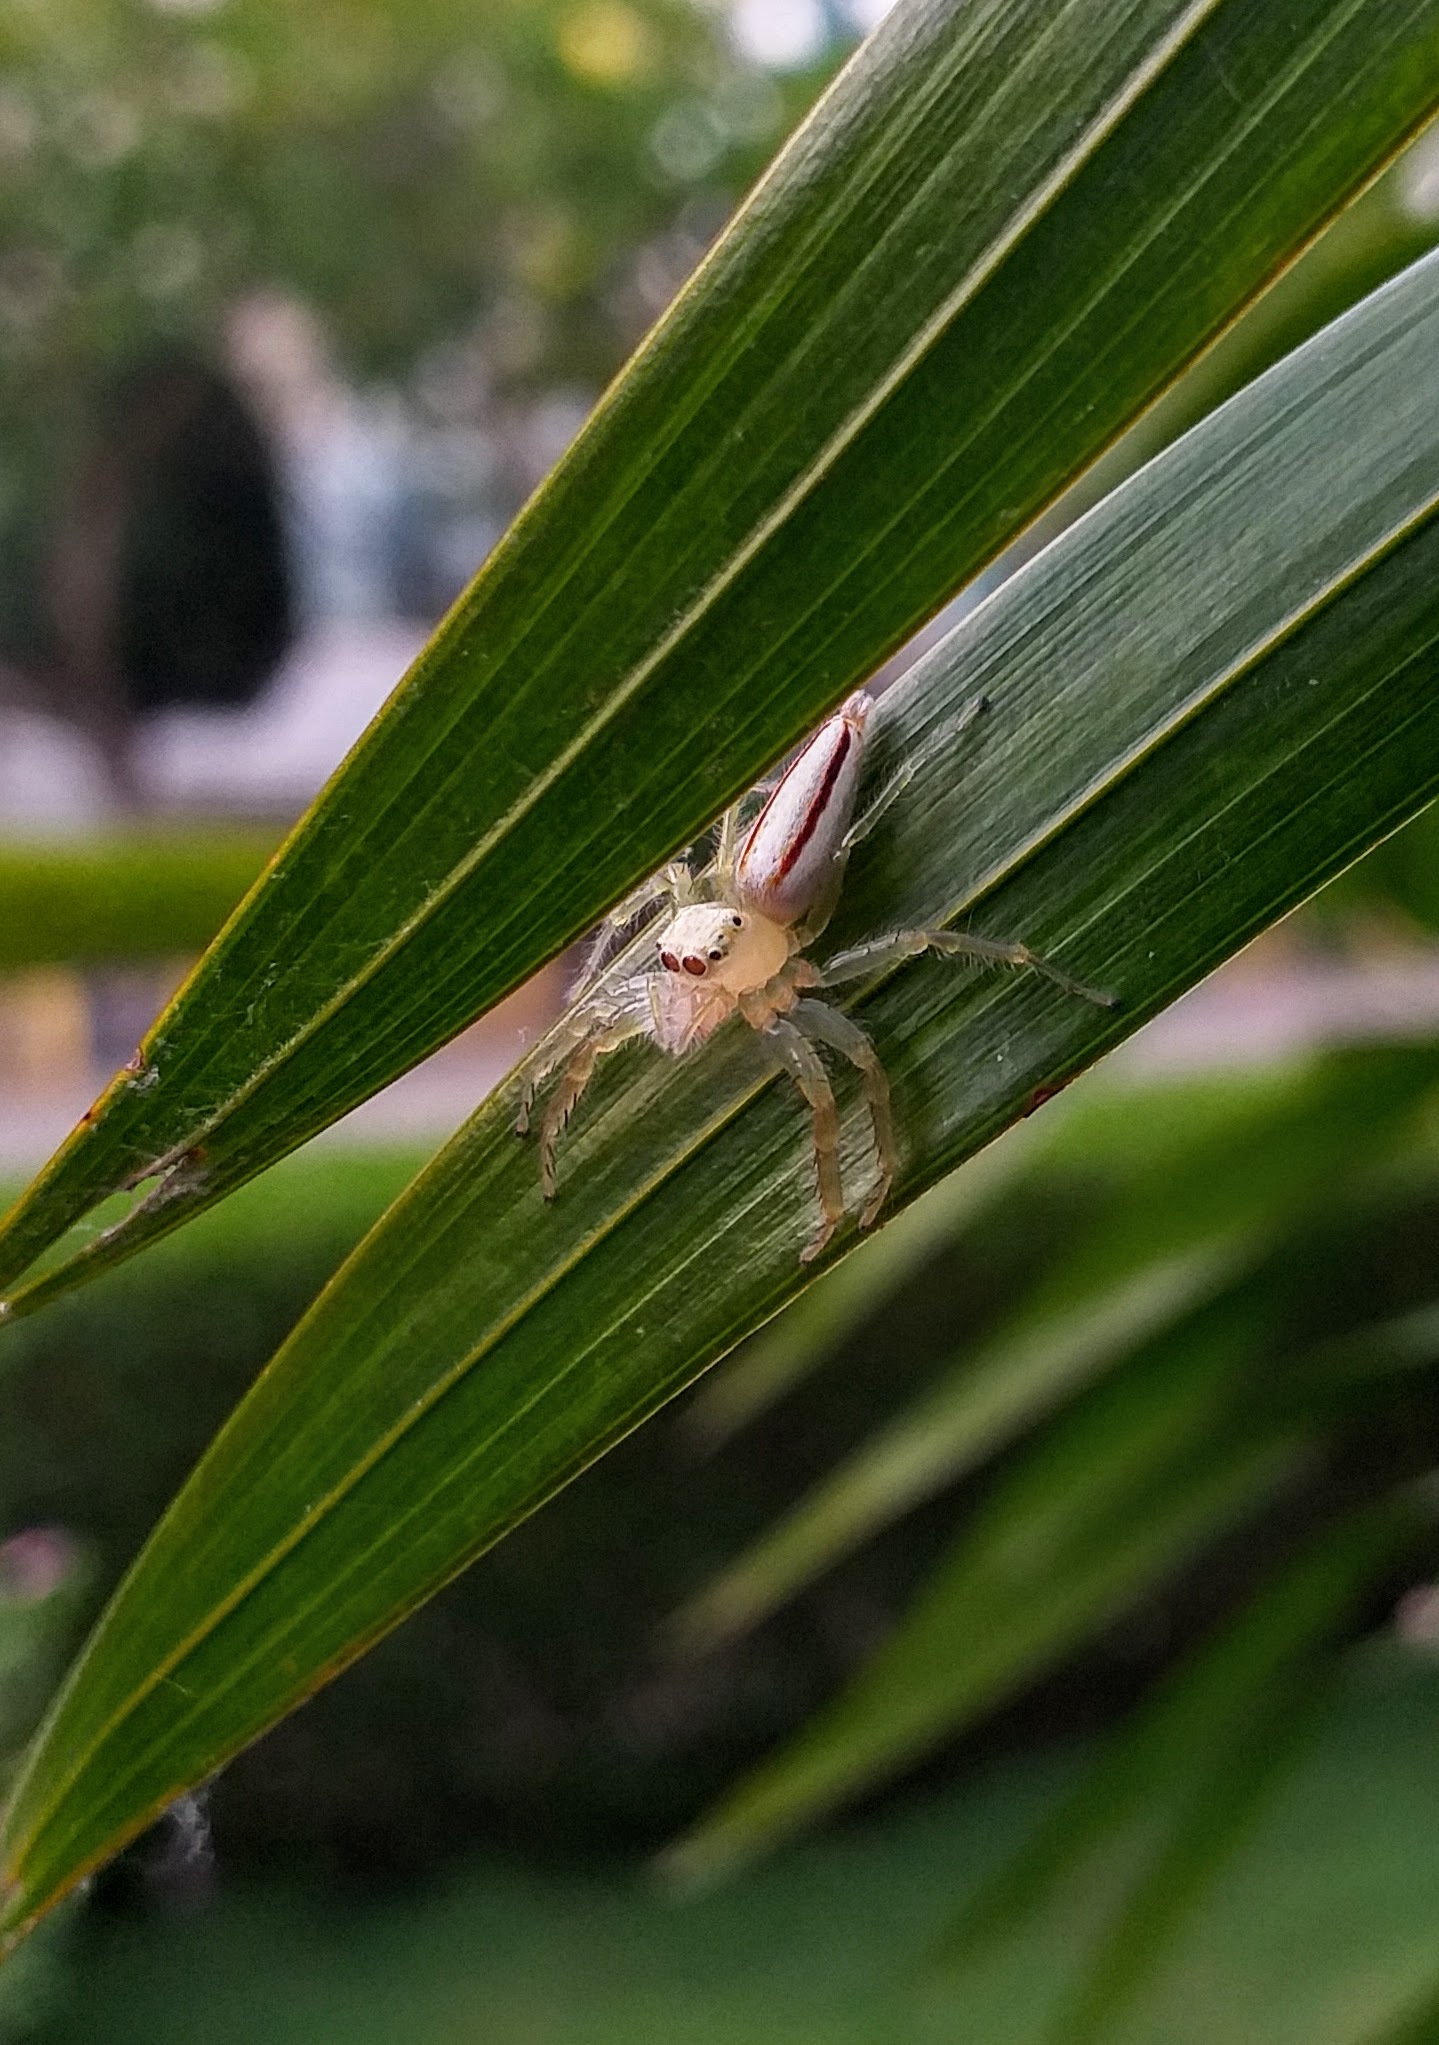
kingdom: Animalia
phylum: Arthropoda
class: Arachnida
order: Araneae
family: Salticidae
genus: Telamonia
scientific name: Telamonia dimidiata
